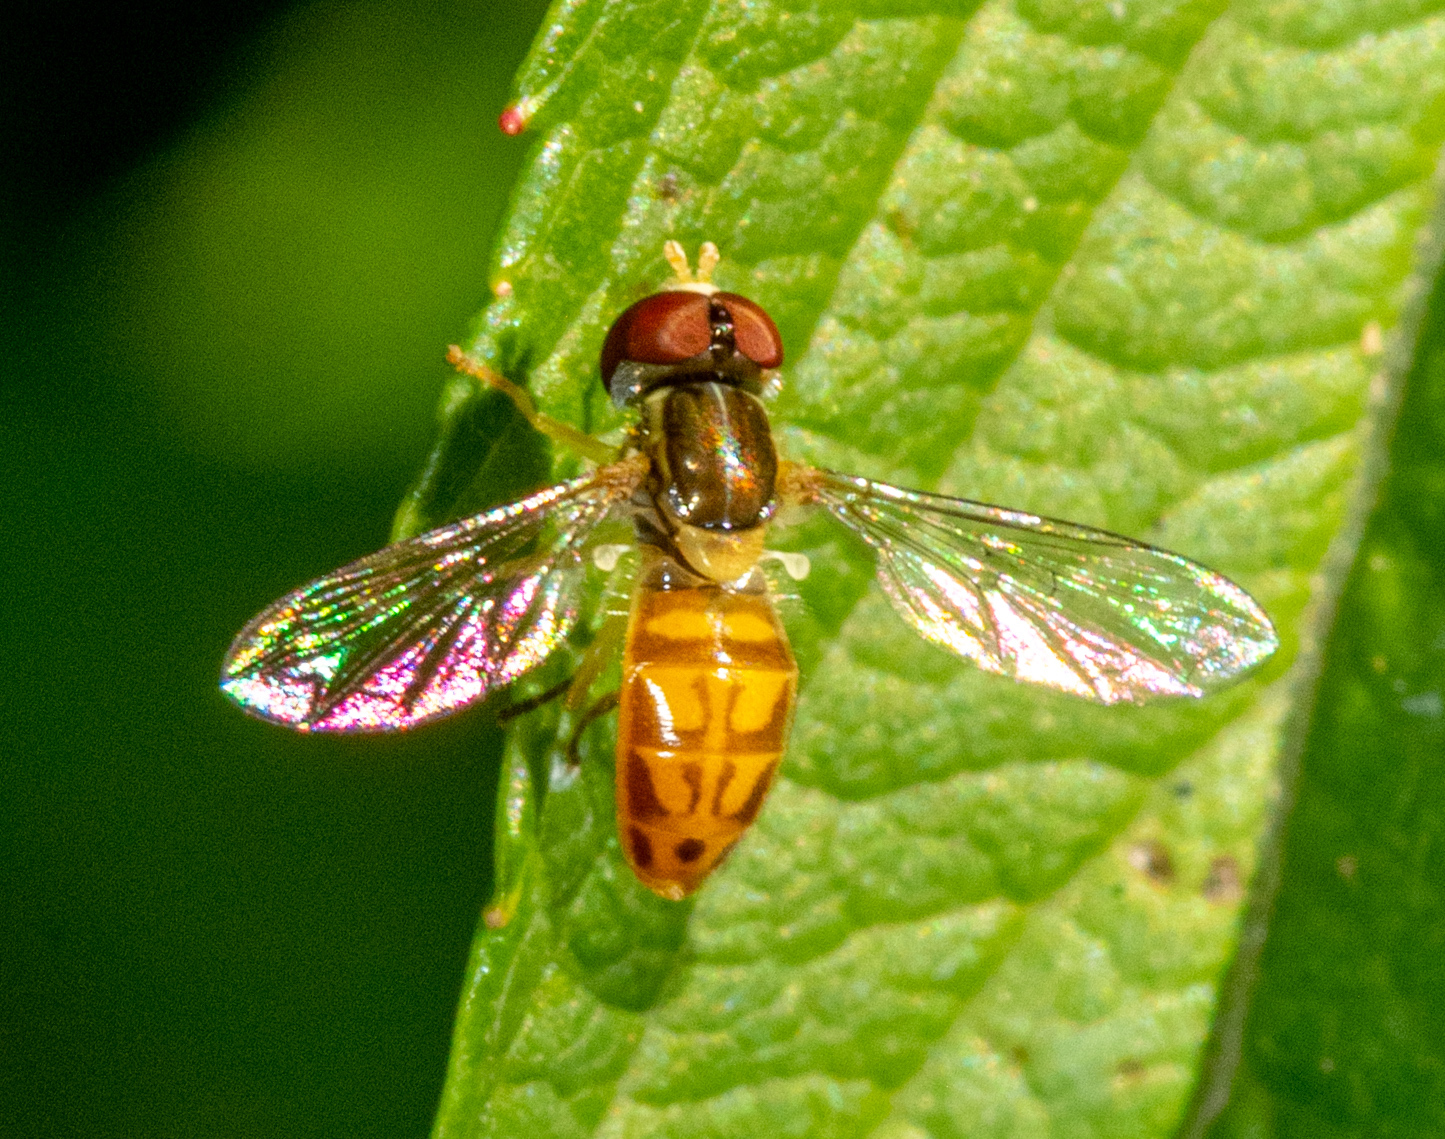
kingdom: Animalia
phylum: Arthropoda
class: Insecta
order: Diptera
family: Syrphidae
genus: Toxomerus
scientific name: Toxomerus marginatus
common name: Syrphid fly
